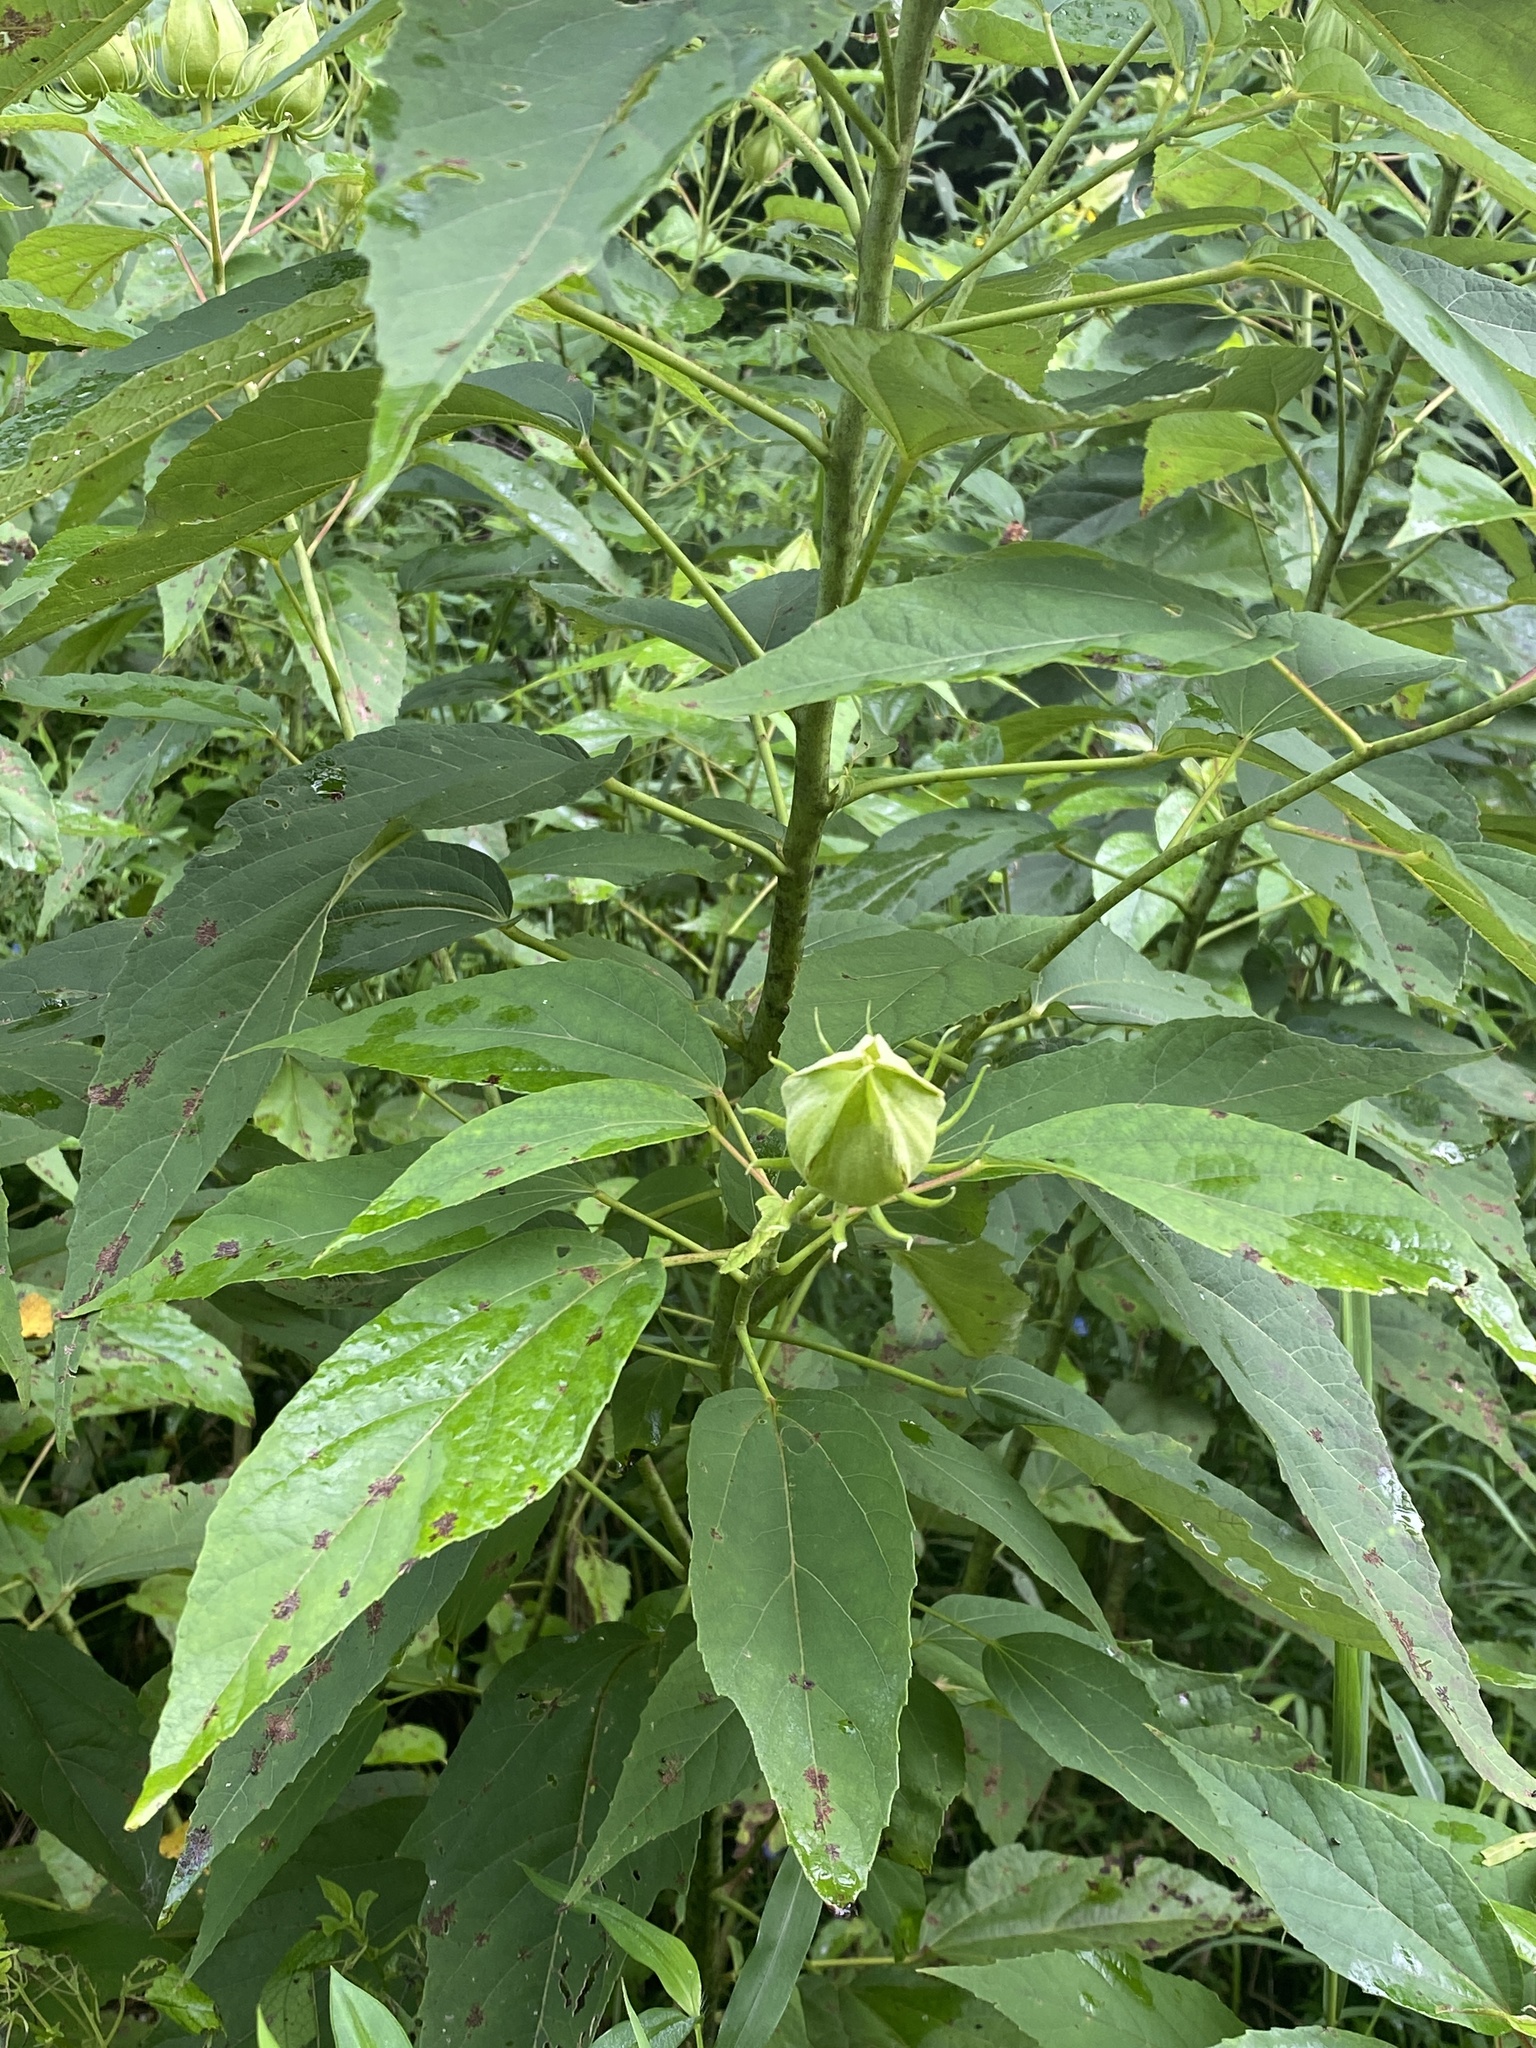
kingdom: Plantae
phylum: Tracheophyta
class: Magnoliopsida
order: Malvales
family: Malvaceae
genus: Hibiscus
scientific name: Hibiscus moscheutos
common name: Common rose-mallow
